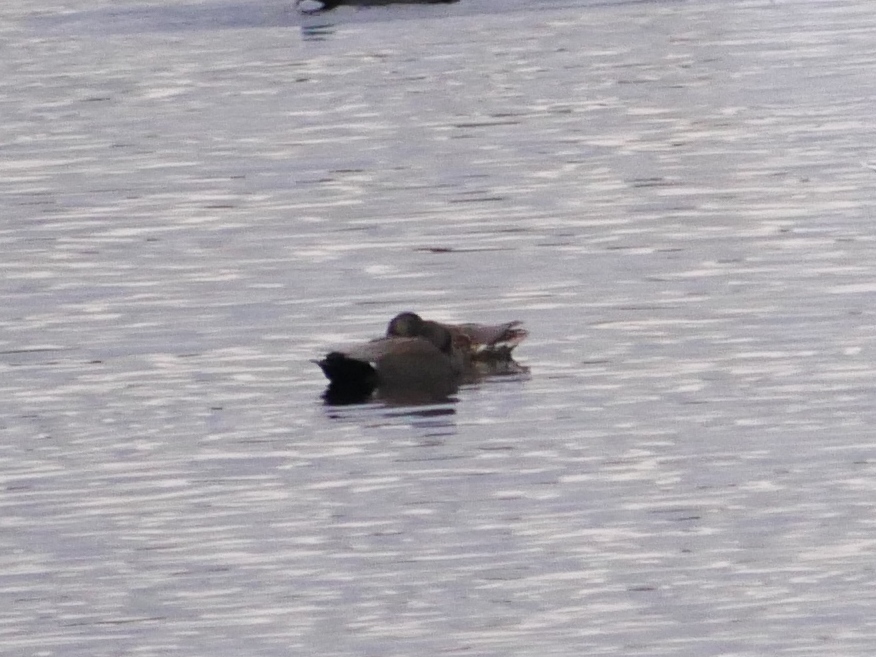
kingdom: Animalia
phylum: Chordata
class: Aves
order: Anseriformes
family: Anatidae
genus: Mareca
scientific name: Mareca strepera
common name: Gadwall
